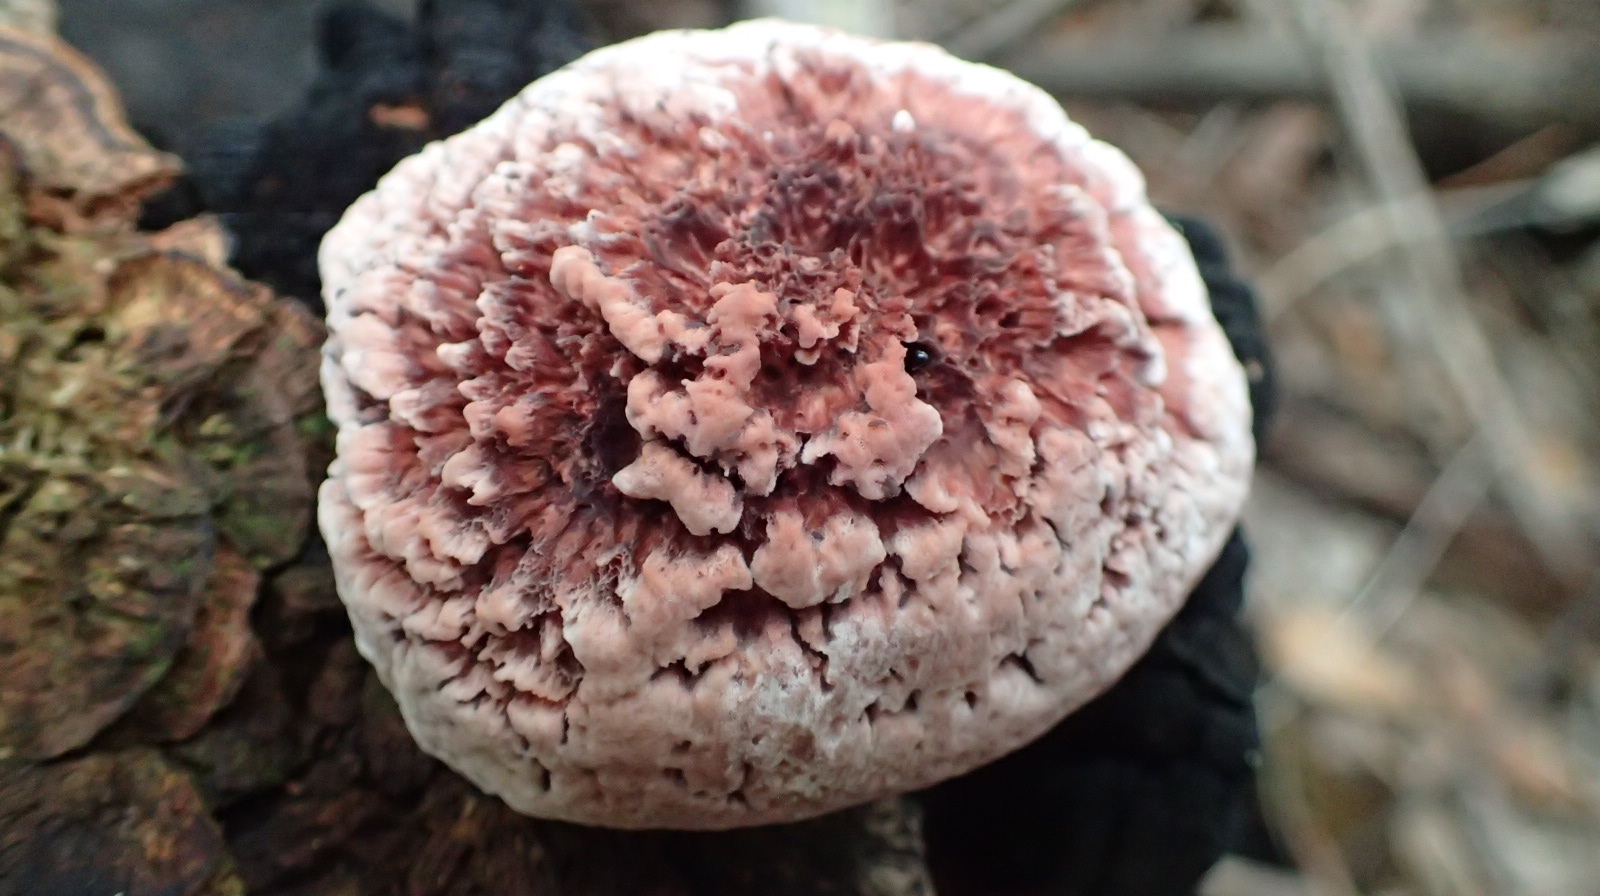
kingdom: Fungi
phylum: Basidiomycota
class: Agaricomycetes
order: Polyporales
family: Fomitopsidaceae
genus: Rhodofomitopsis
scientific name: Rhodofomitopsis lilacinogilva
